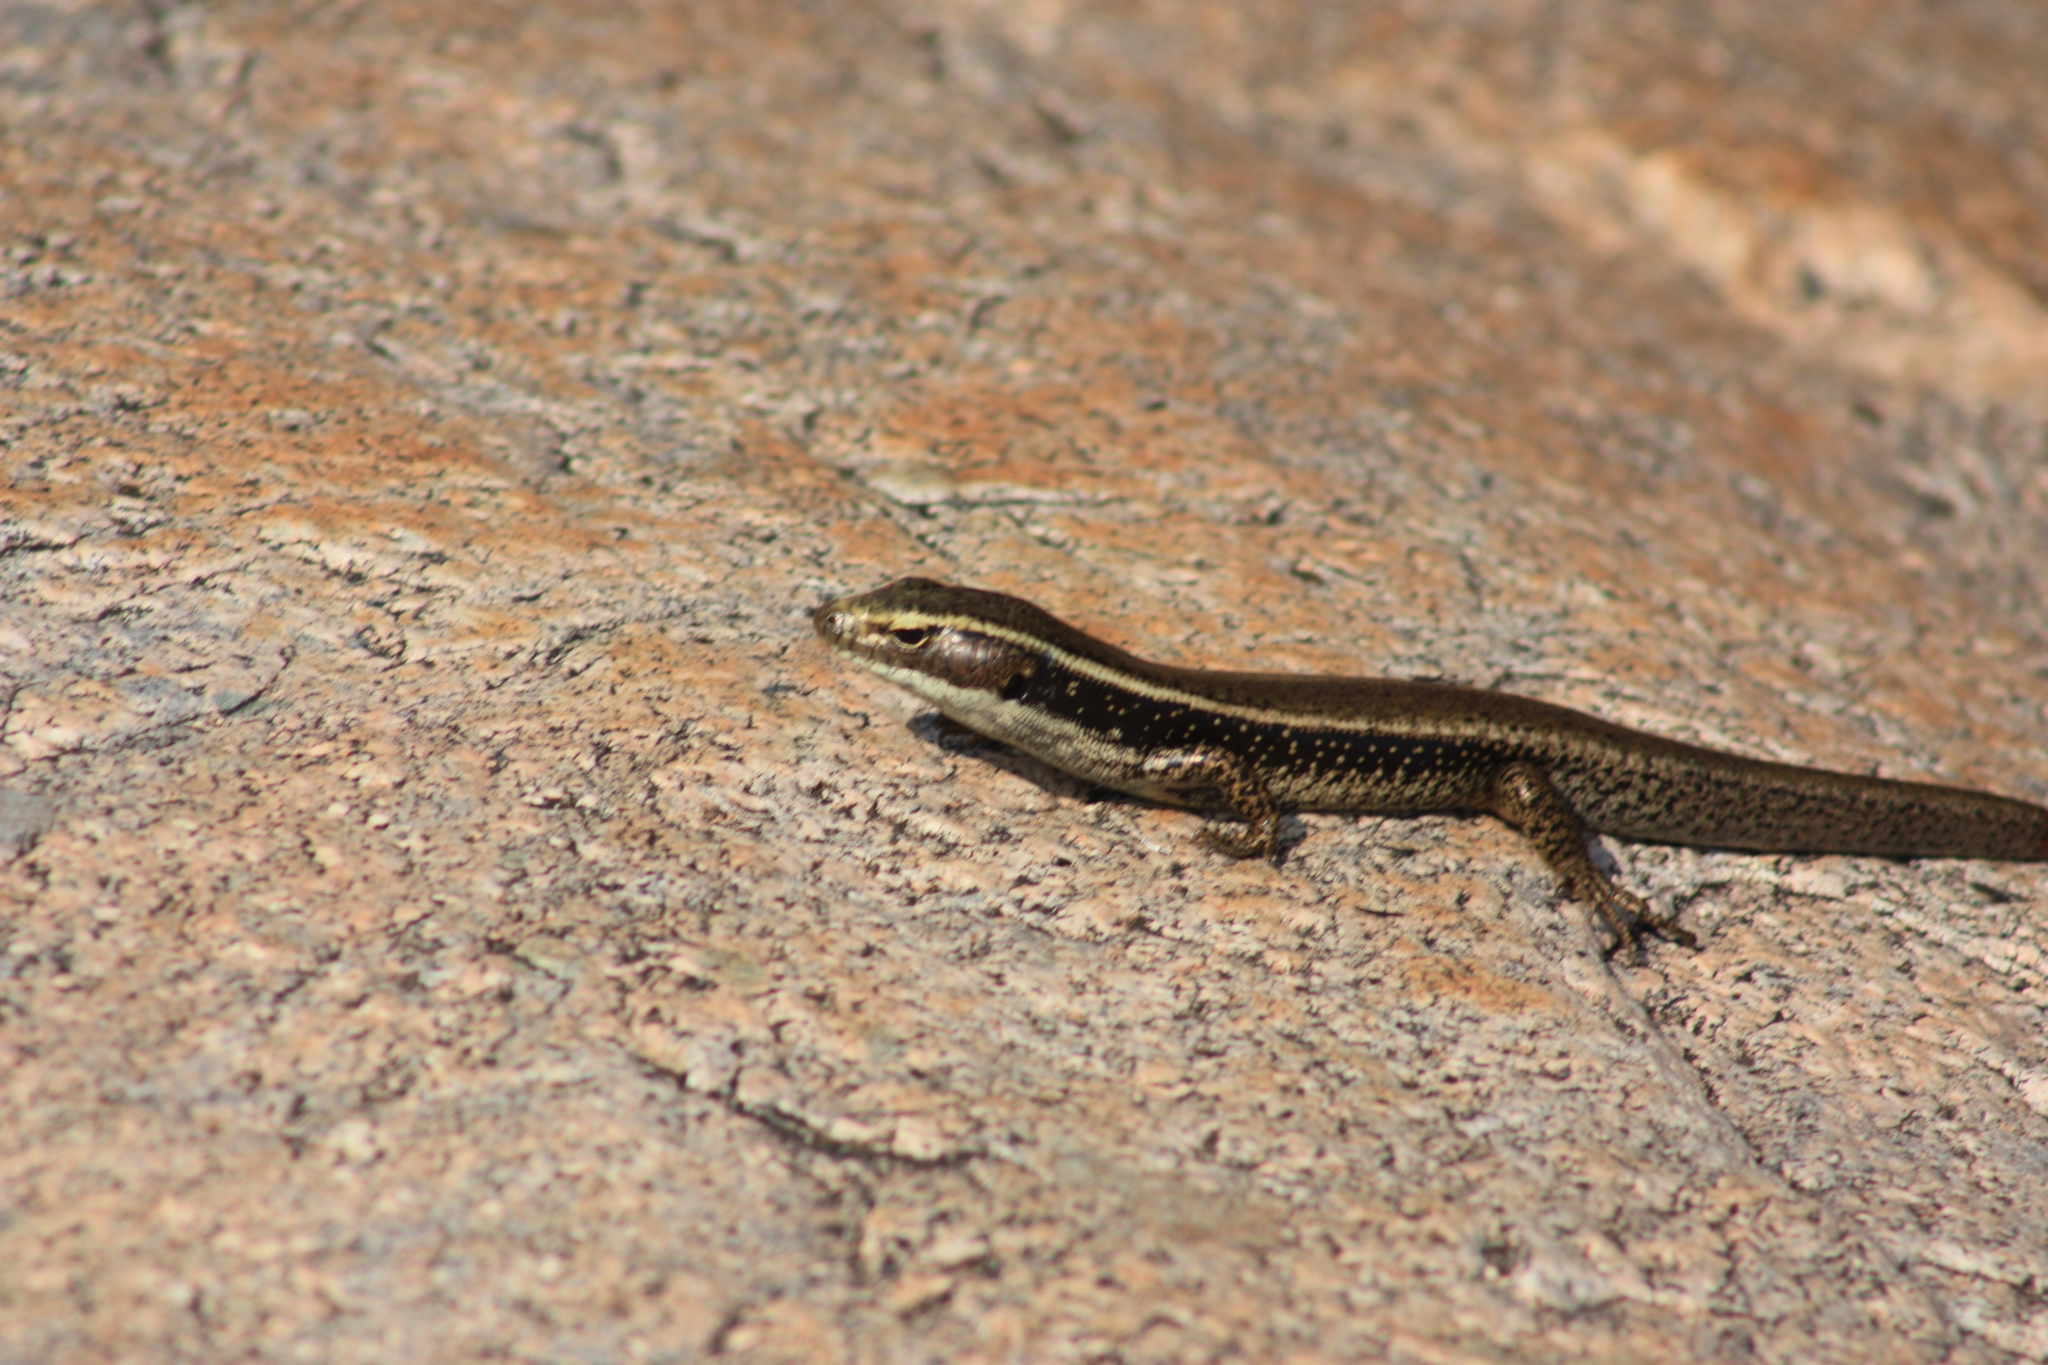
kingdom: Animalia
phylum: Chordata
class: Squamata
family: Scincidae
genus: Eulamprus
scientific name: Eulamprus quoyii
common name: Eastern water skink
